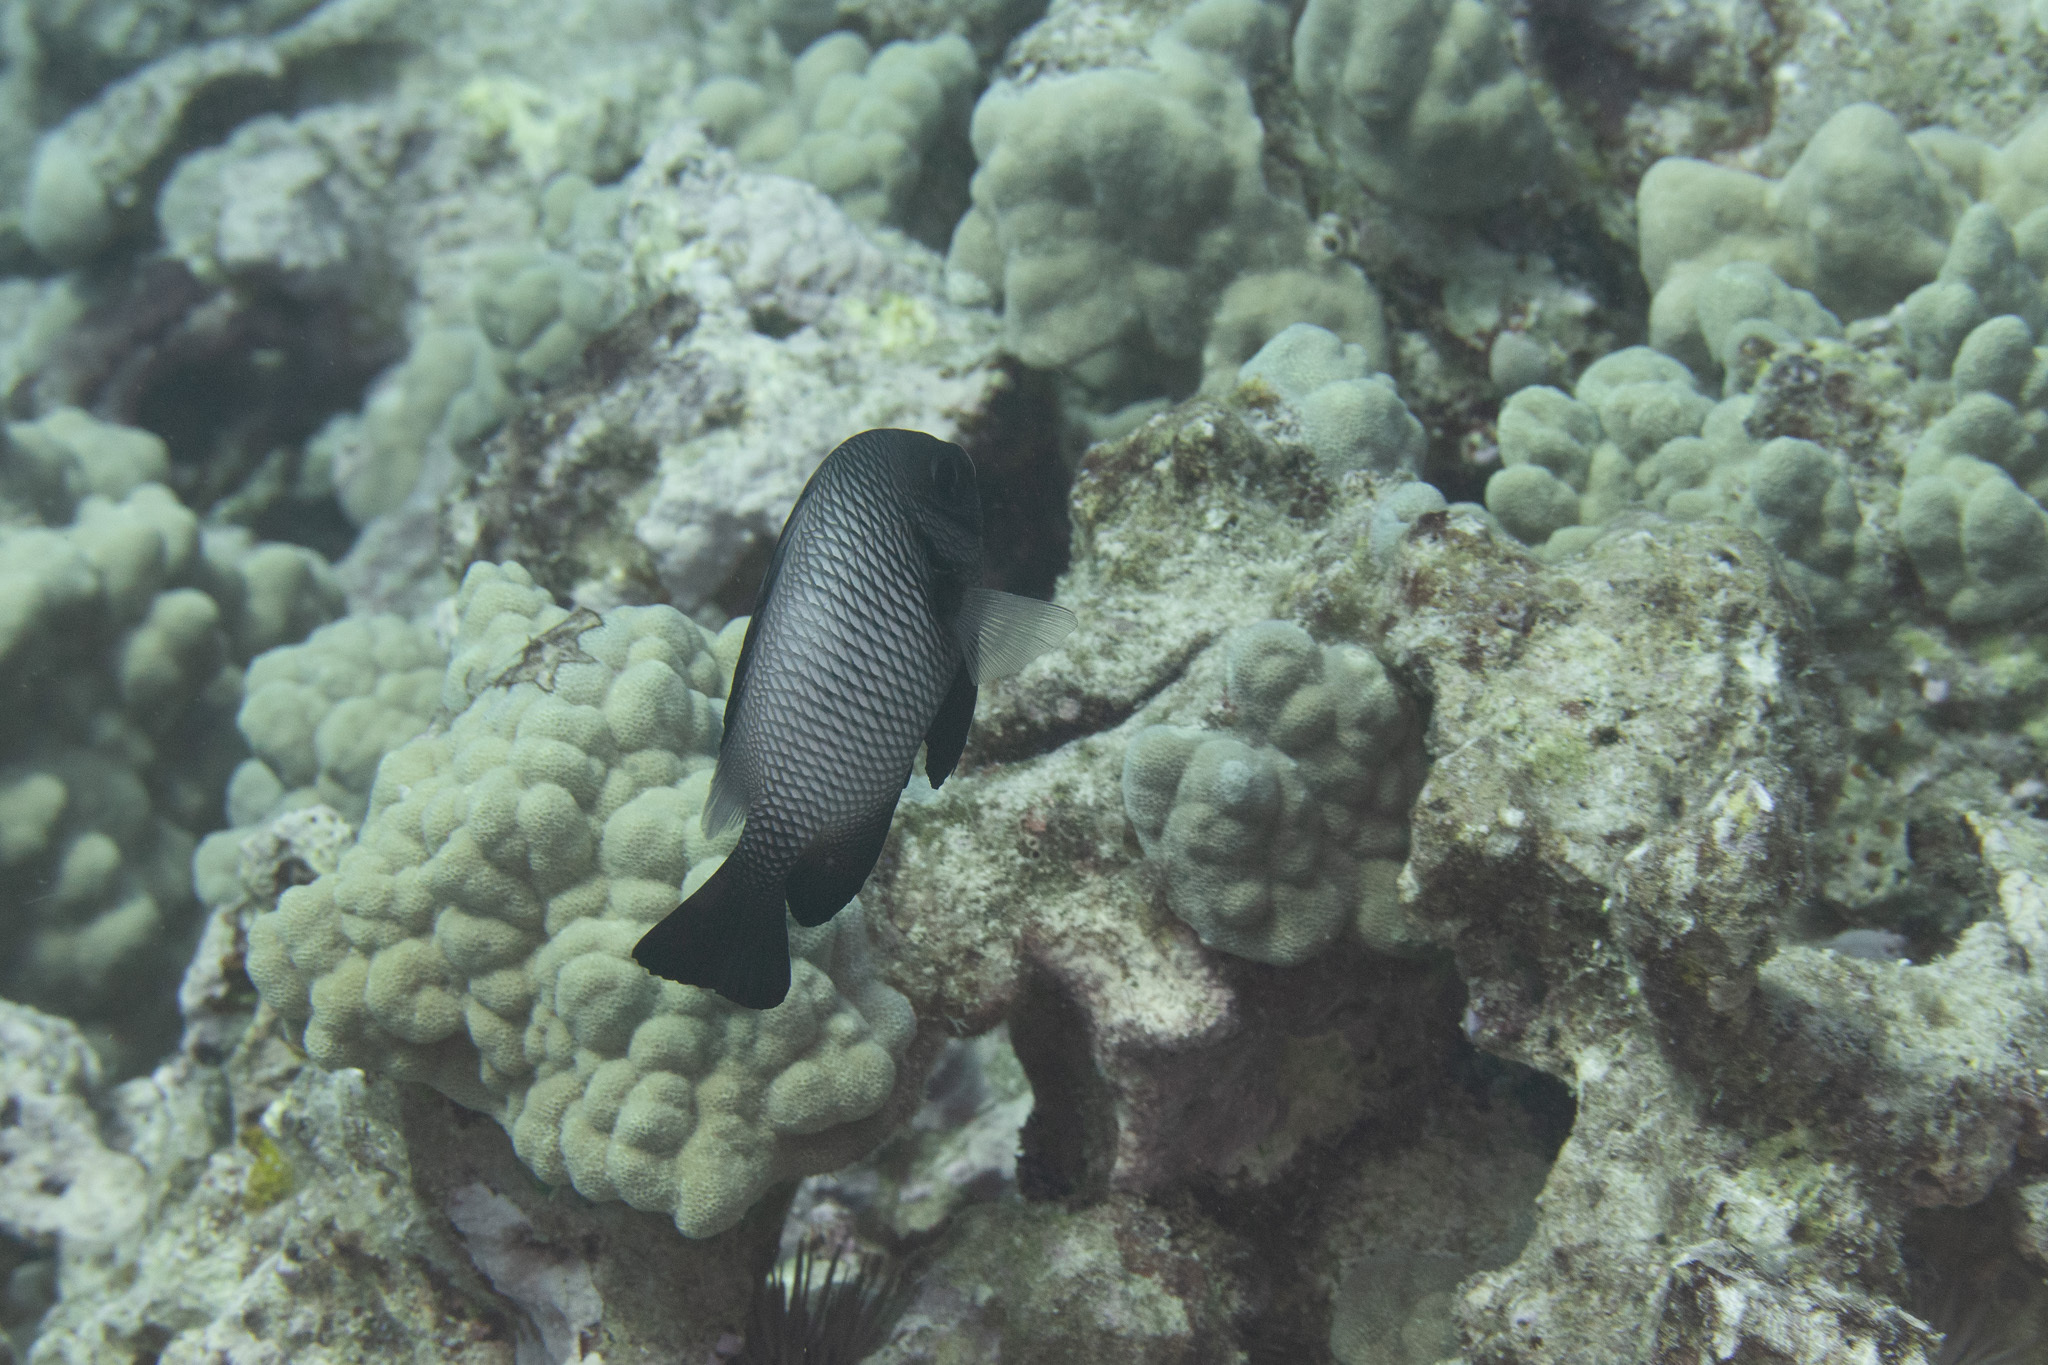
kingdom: Animalia
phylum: Chordata
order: Perciformes
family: Pomacentridae
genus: Dascyllus
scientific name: Dascyllus albisella
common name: Hawaiian dascyllus
